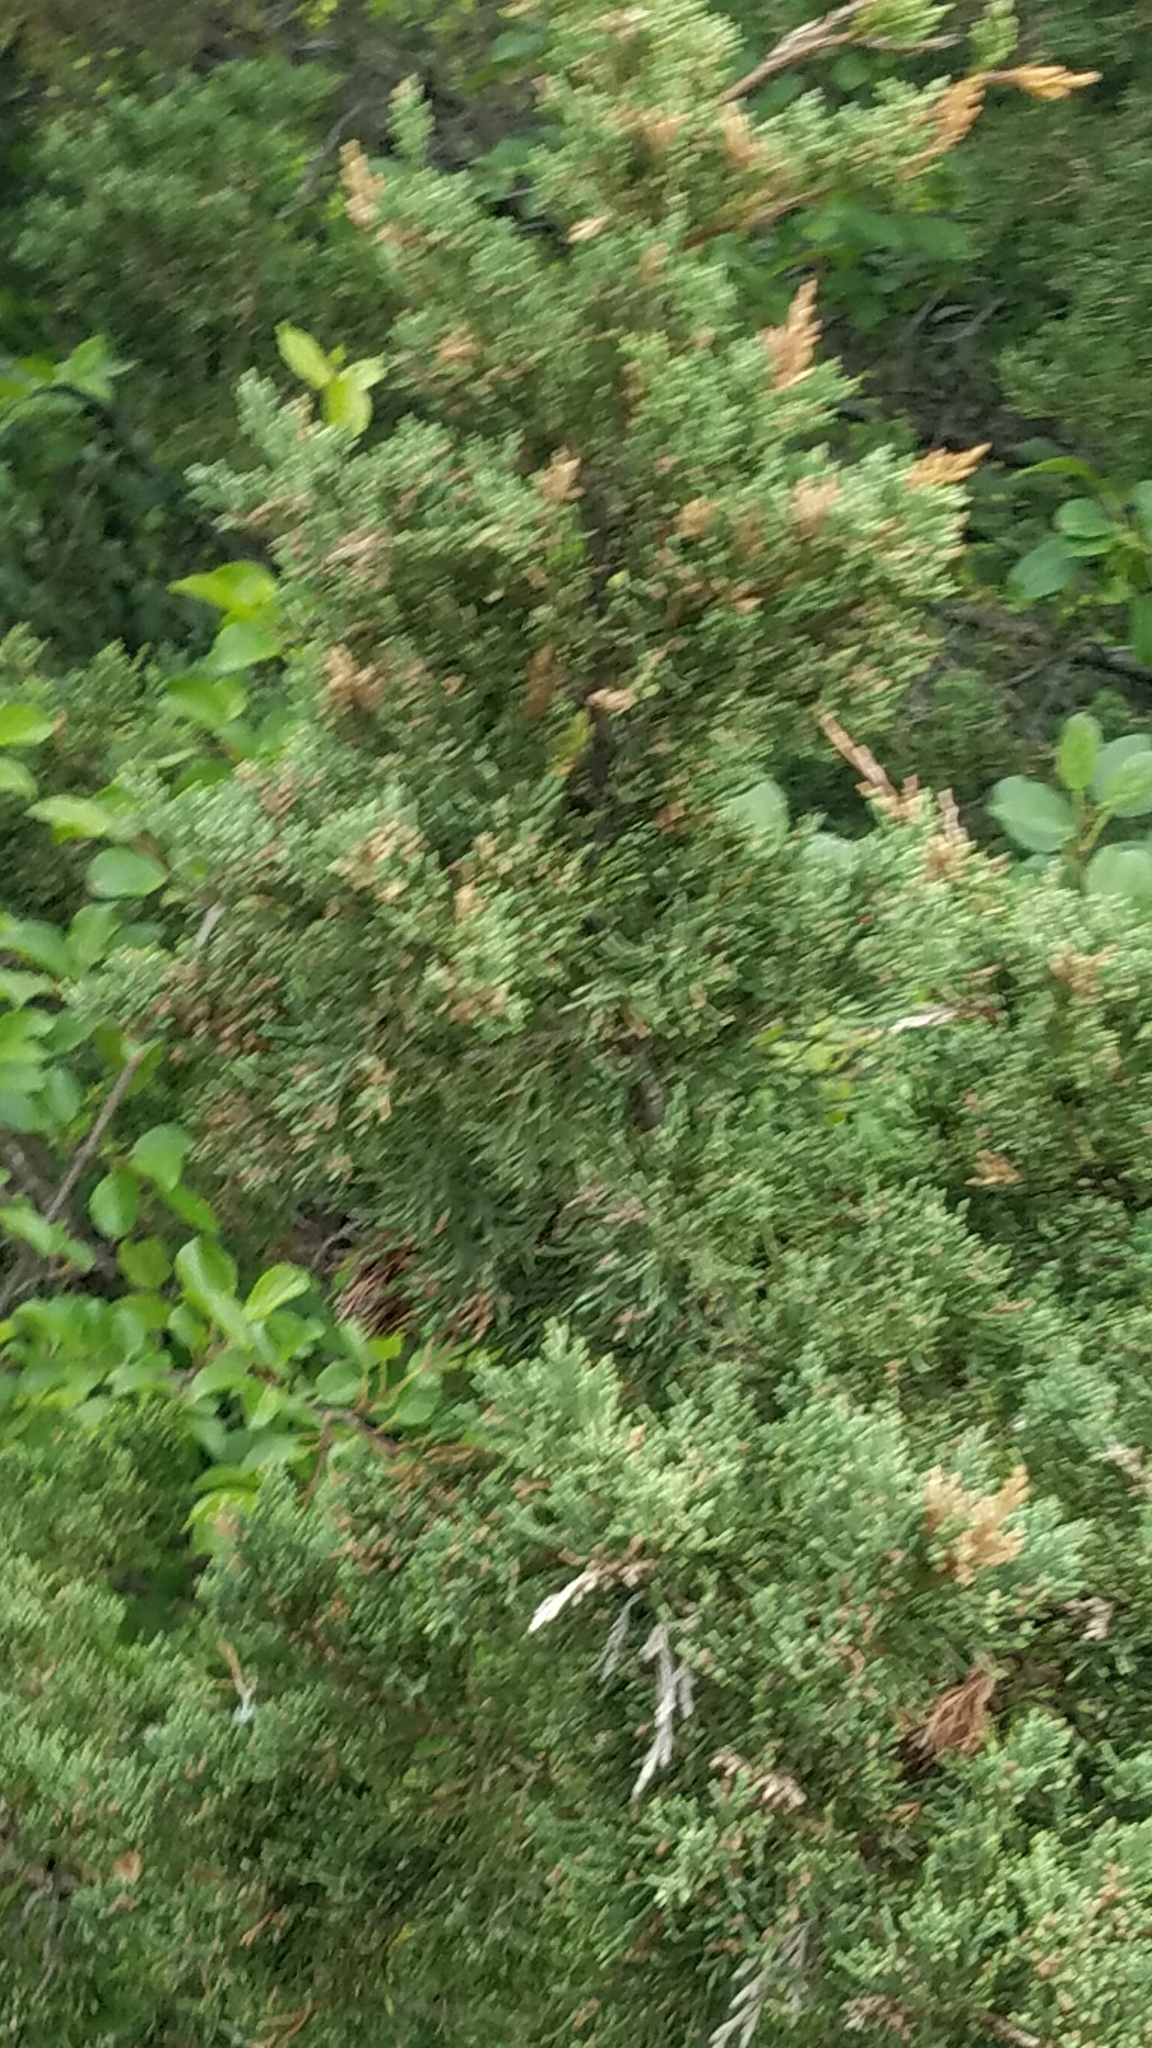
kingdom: Plantae
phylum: Tracheophyta
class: Pinopsida
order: Pinales
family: Cupressaceae
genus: Juniperus
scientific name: Juniperus virginiana
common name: Red juniper
